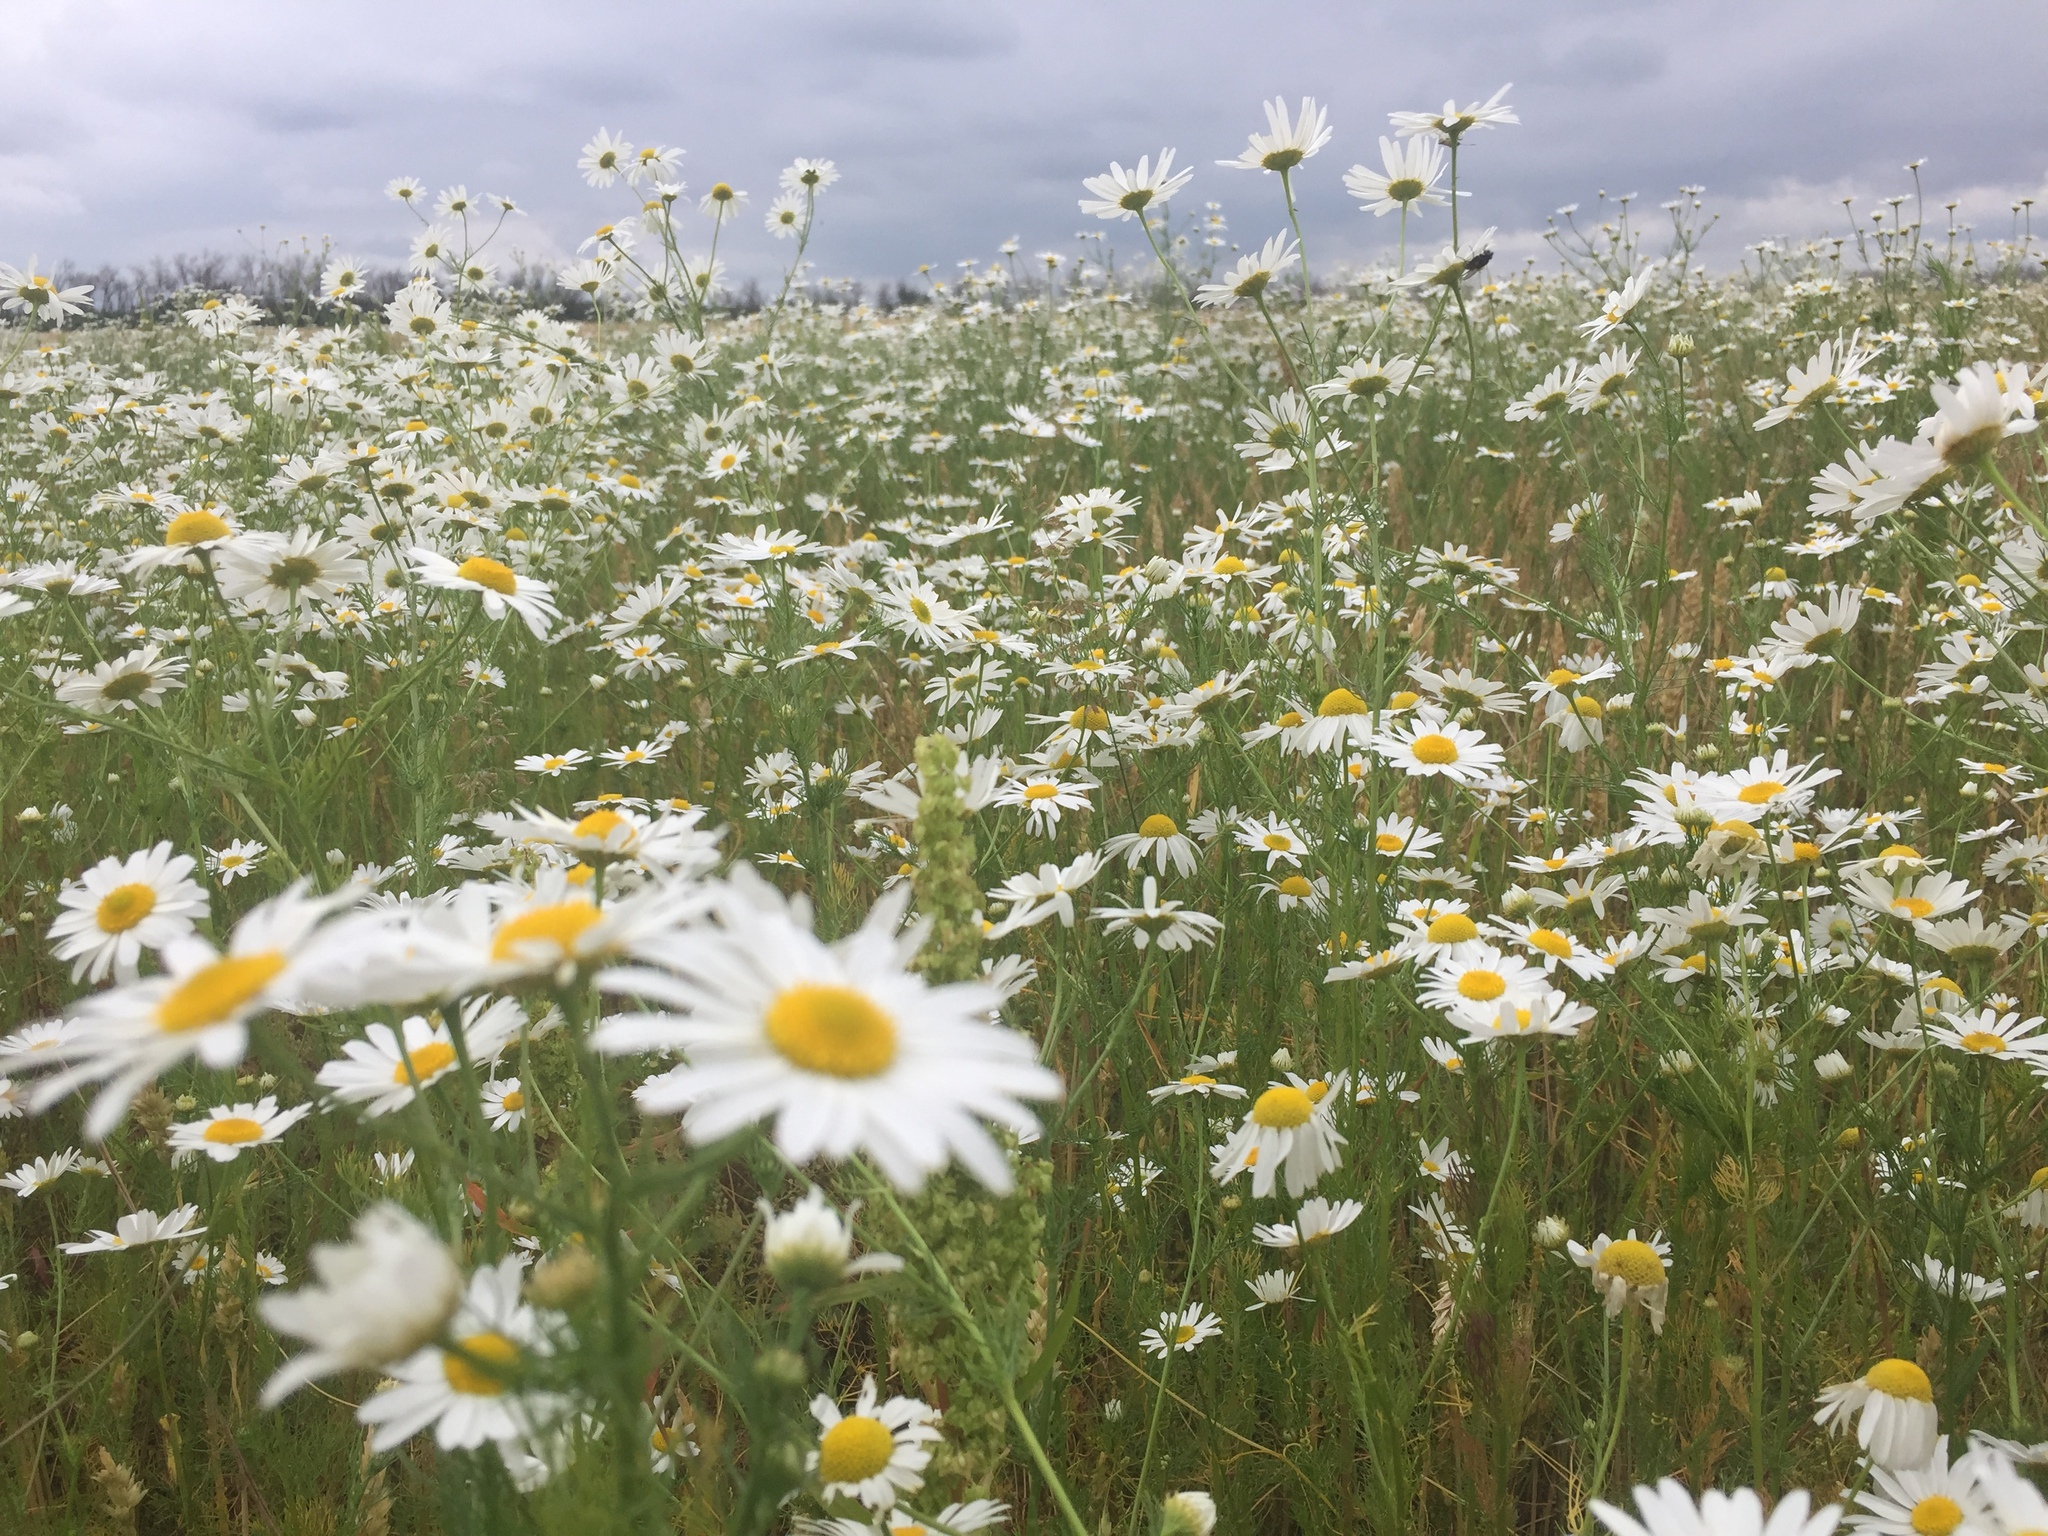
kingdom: Plantae
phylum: Tracheophyta
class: Magnoliopsida
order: Asterales
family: Asteraceae
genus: Tripleurospermum
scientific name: Tripleurospermum inodorum
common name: Scentless mayweed
